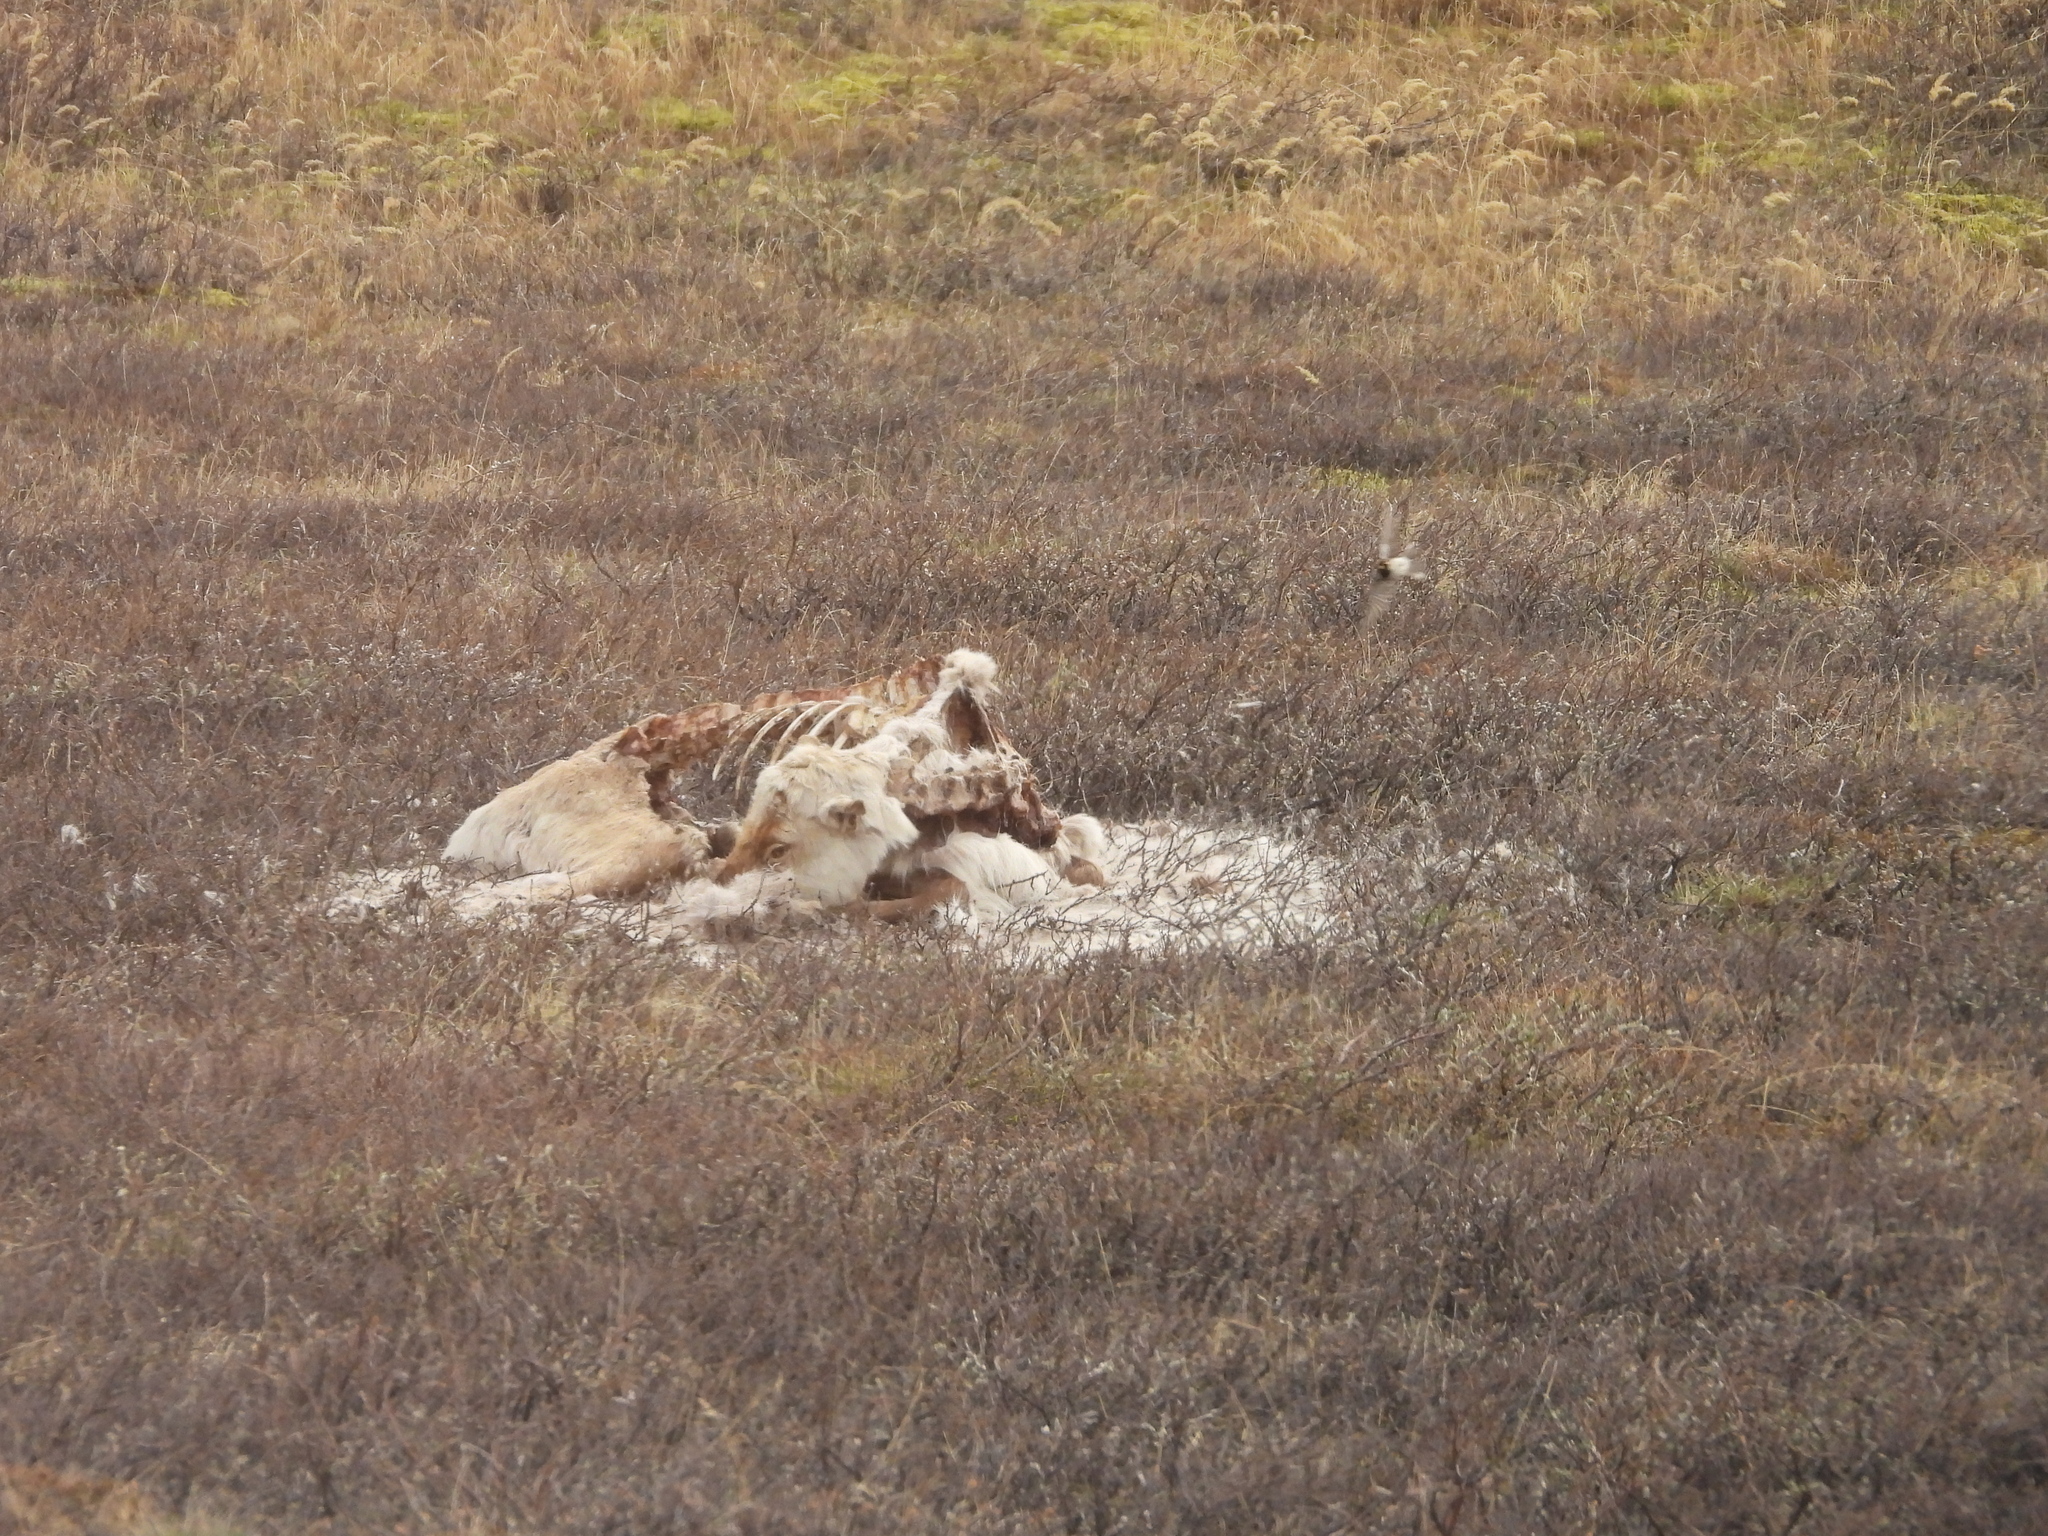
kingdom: Animalia
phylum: Chordata
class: Mammalia
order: Artiodactyla
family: Cervidae
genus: Rangifer
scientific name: Rangifer tarandus
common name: Reindeer
